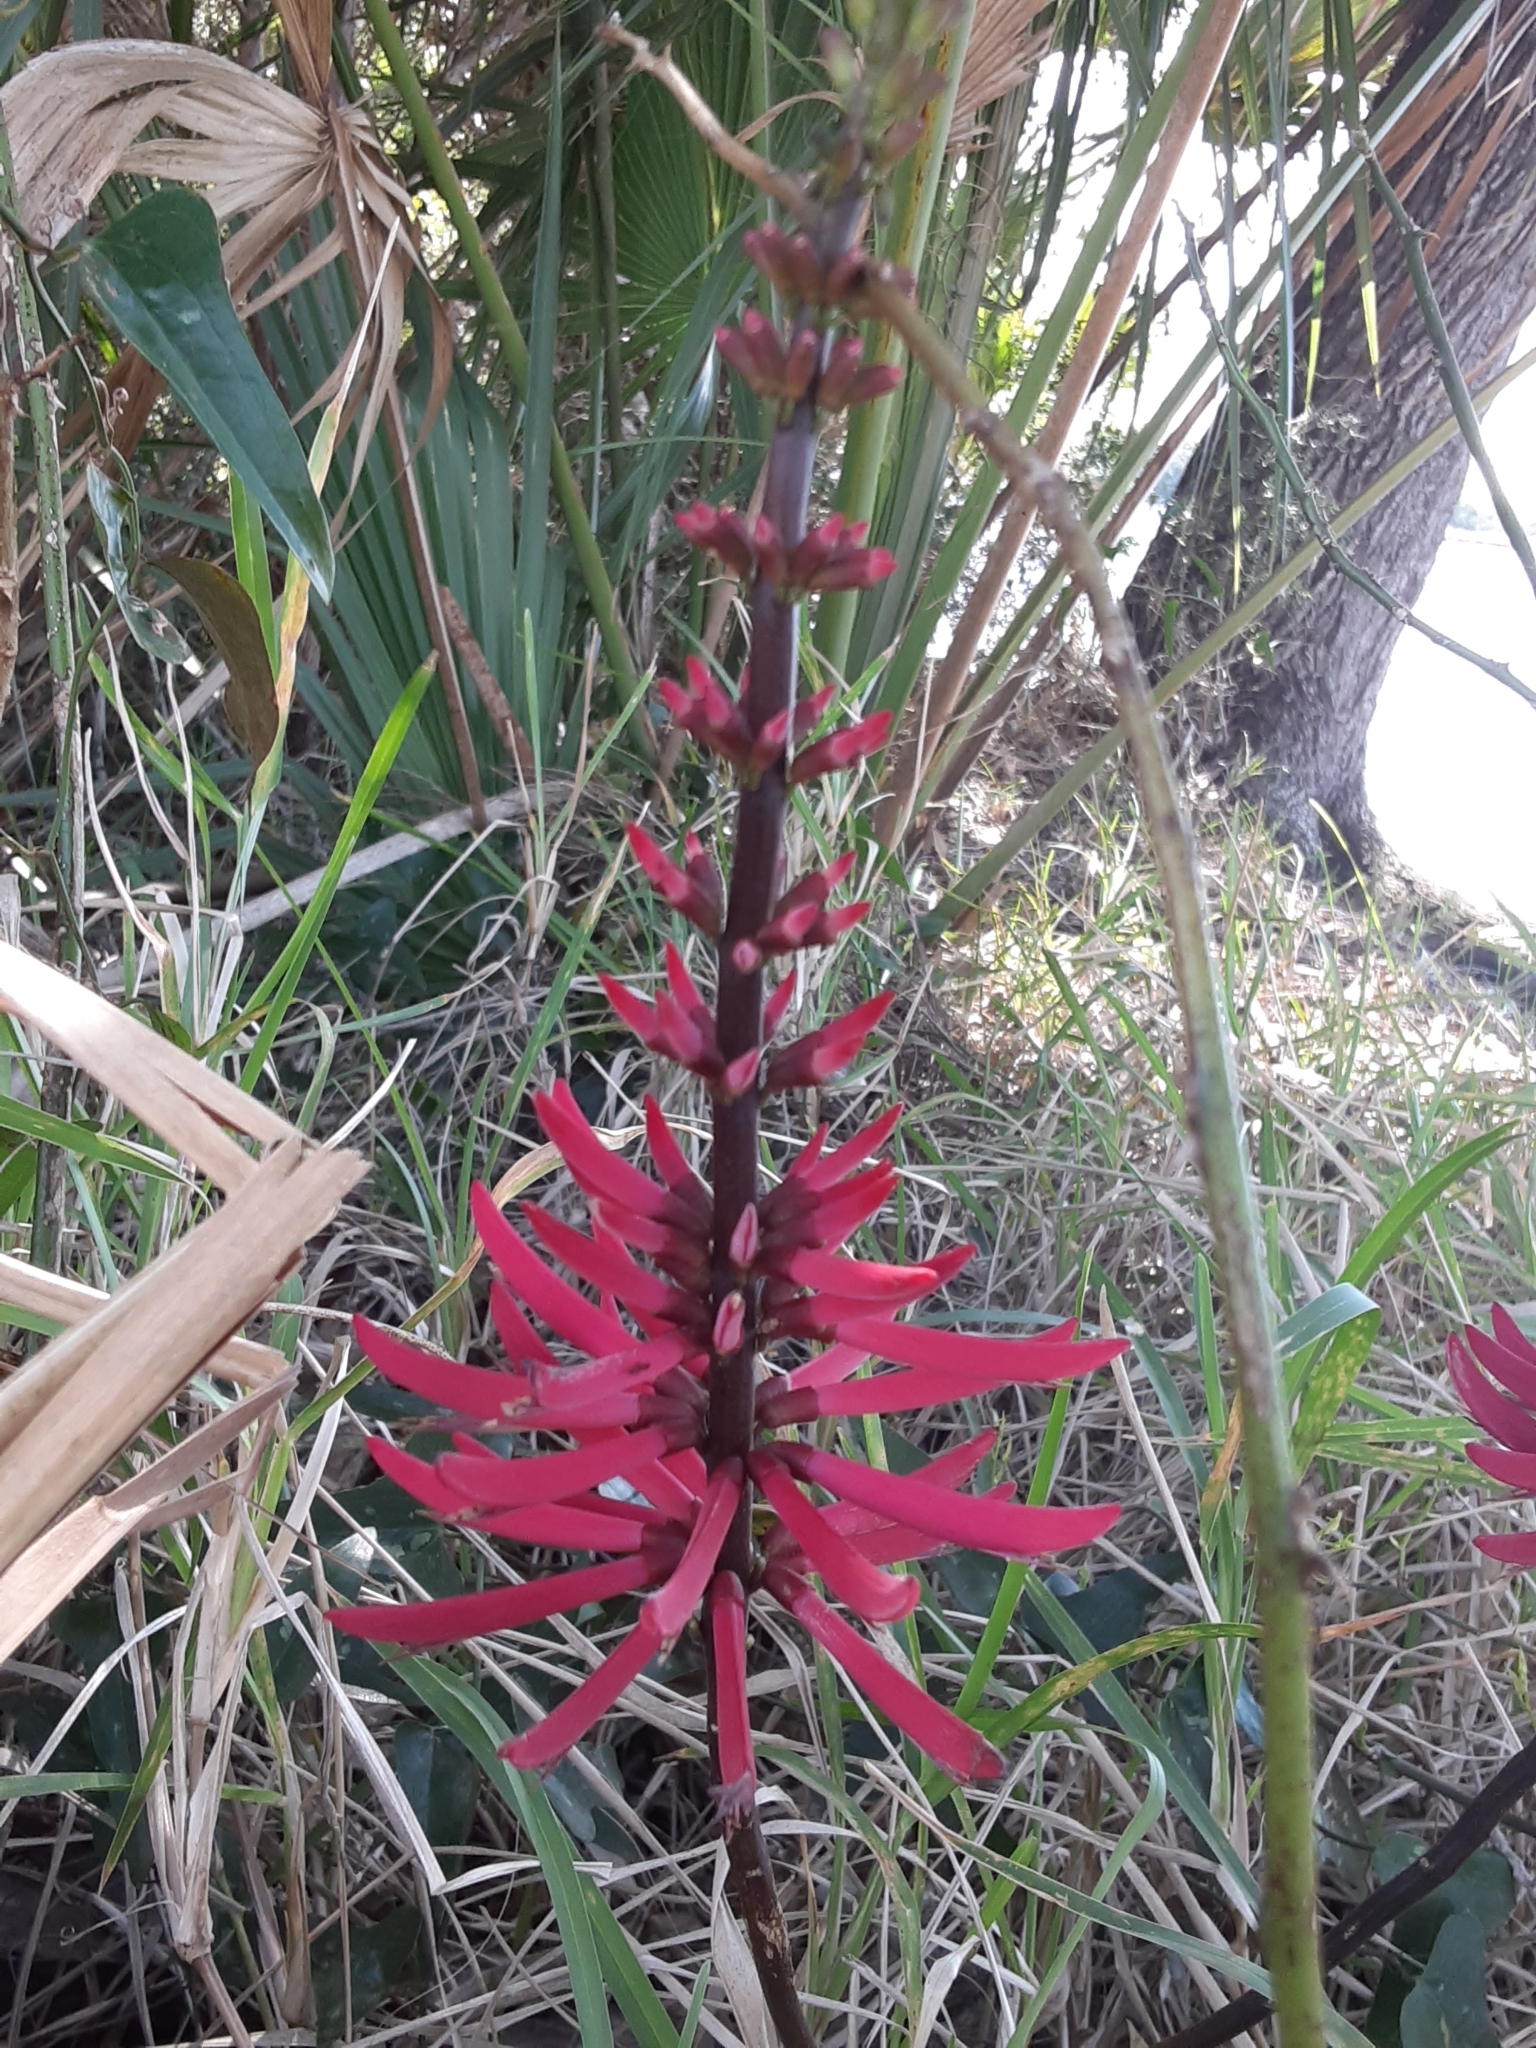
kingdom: Plantae
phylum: Tracheophyta
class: Magnoliopsida
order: Fabales
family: Fabaceae
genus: Erythrina
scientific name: Erythrina herbacea
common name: Coral-bean
